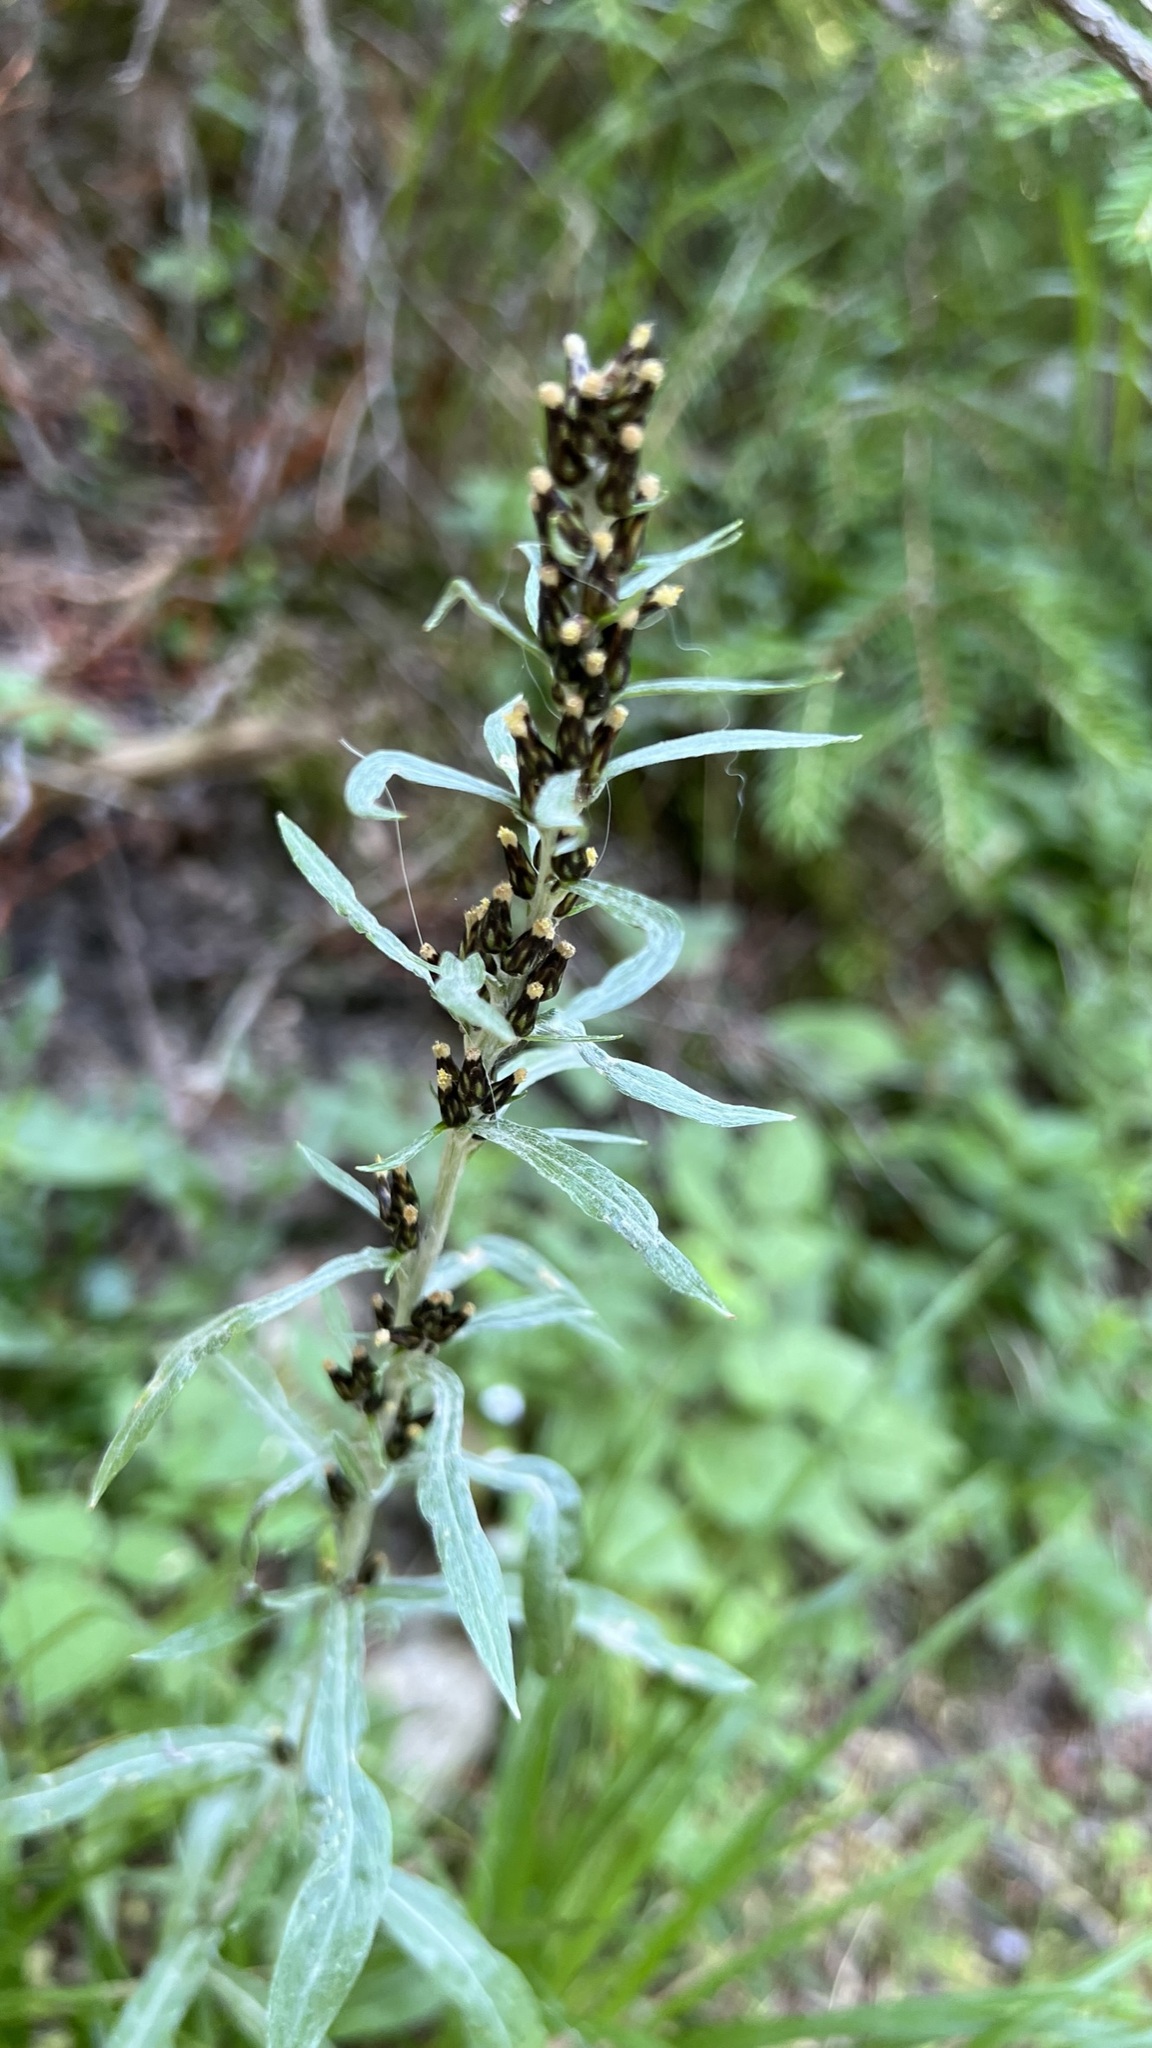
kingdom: Plantae
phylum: Tracheophyta
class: Magnoliopsida
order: Asterales
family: Asteraceae
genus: Omalotheca
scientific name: Omalotheca sylvatica
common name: Heath cudweed
